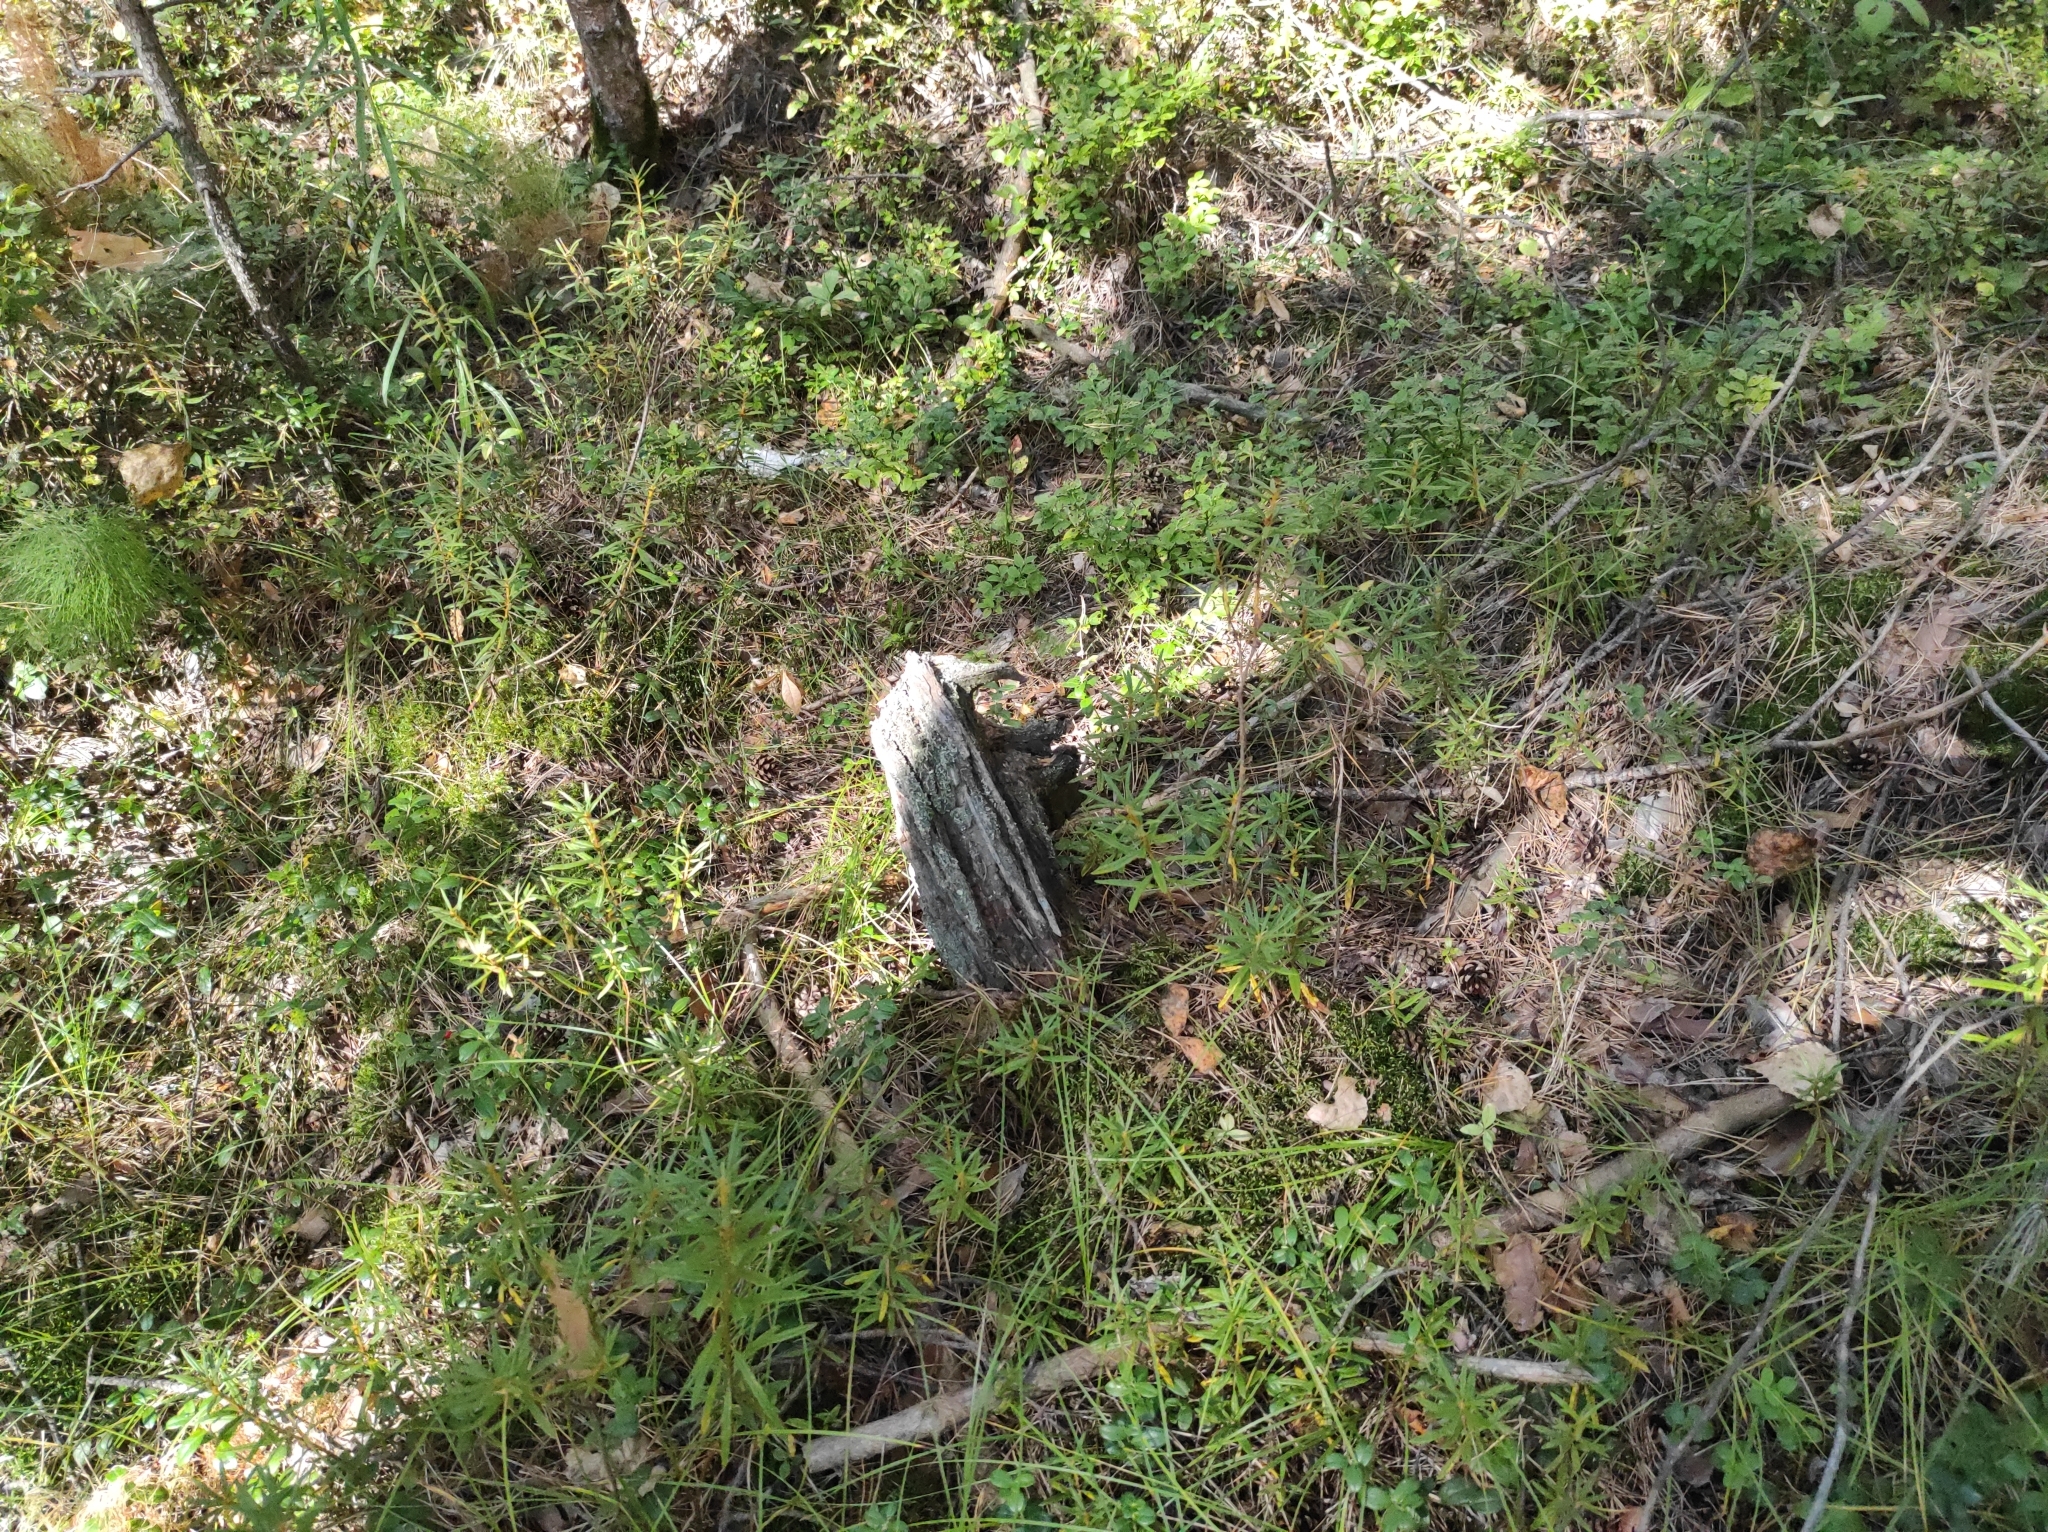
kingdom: Plantae
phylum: Tracheophyta
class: Magnoliopsida
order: Ericales
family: Ericaceae
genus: Rhododendron
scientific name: Rhododendron tomentosum
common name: Marsh labrador tea
